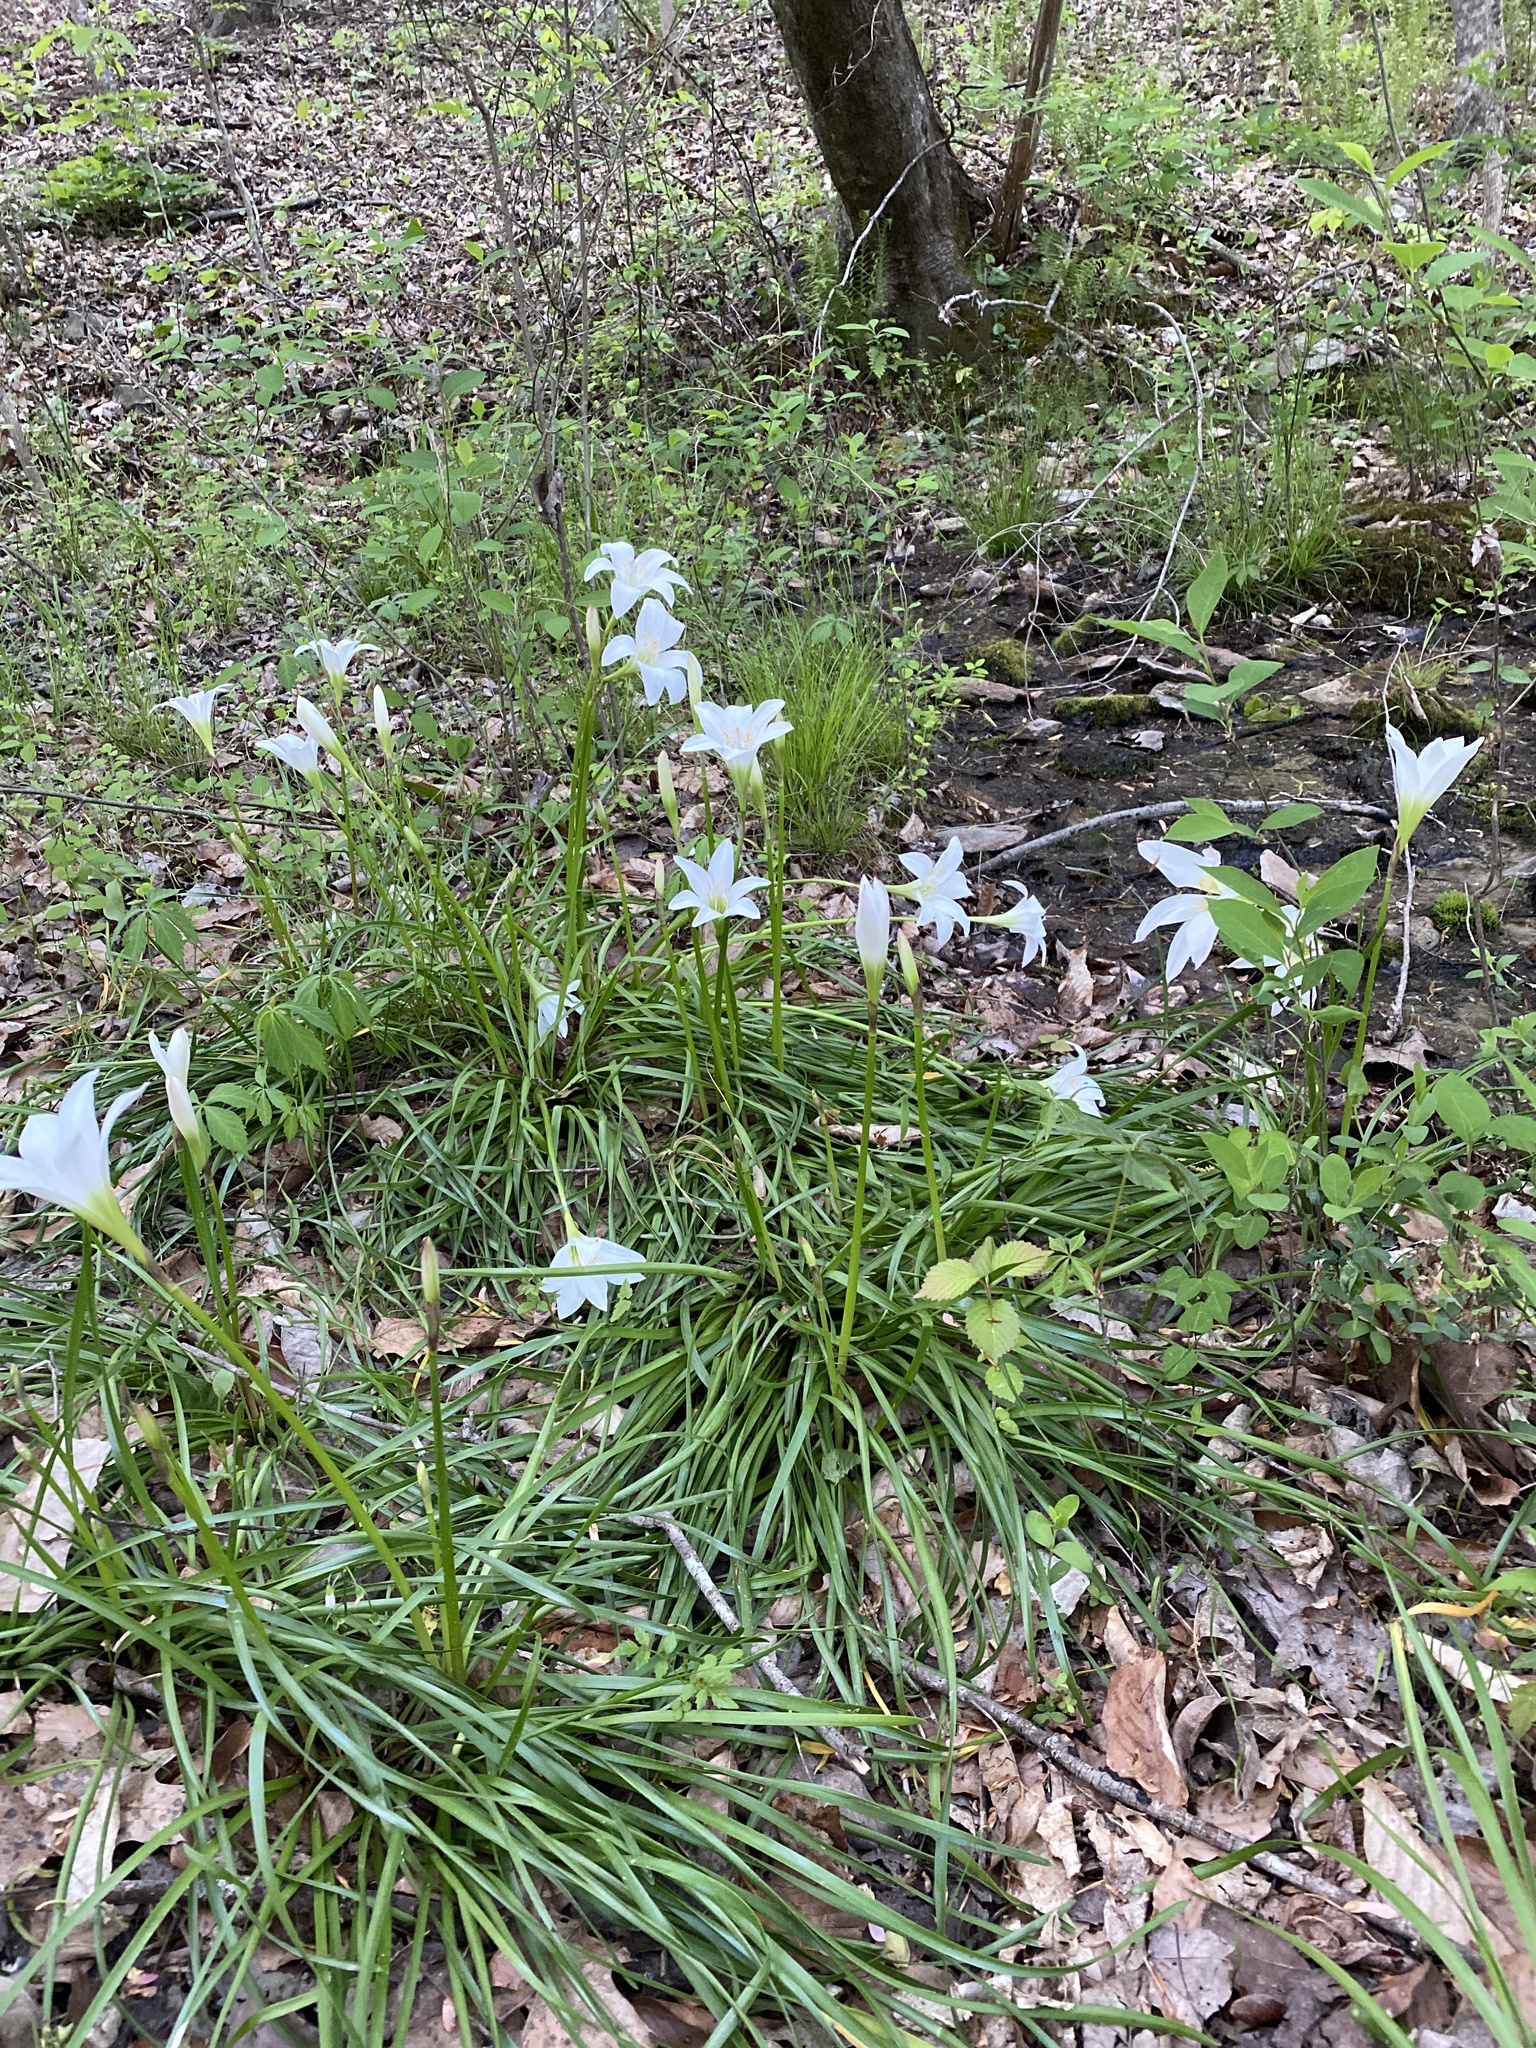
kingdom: Plantae
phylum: Tracheophyta
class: Liliopsida
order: Asparagales
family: Amaryllidaceae
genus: Zephyranthes
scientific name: Zephyranthes atamasco
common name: Atamasco lily
